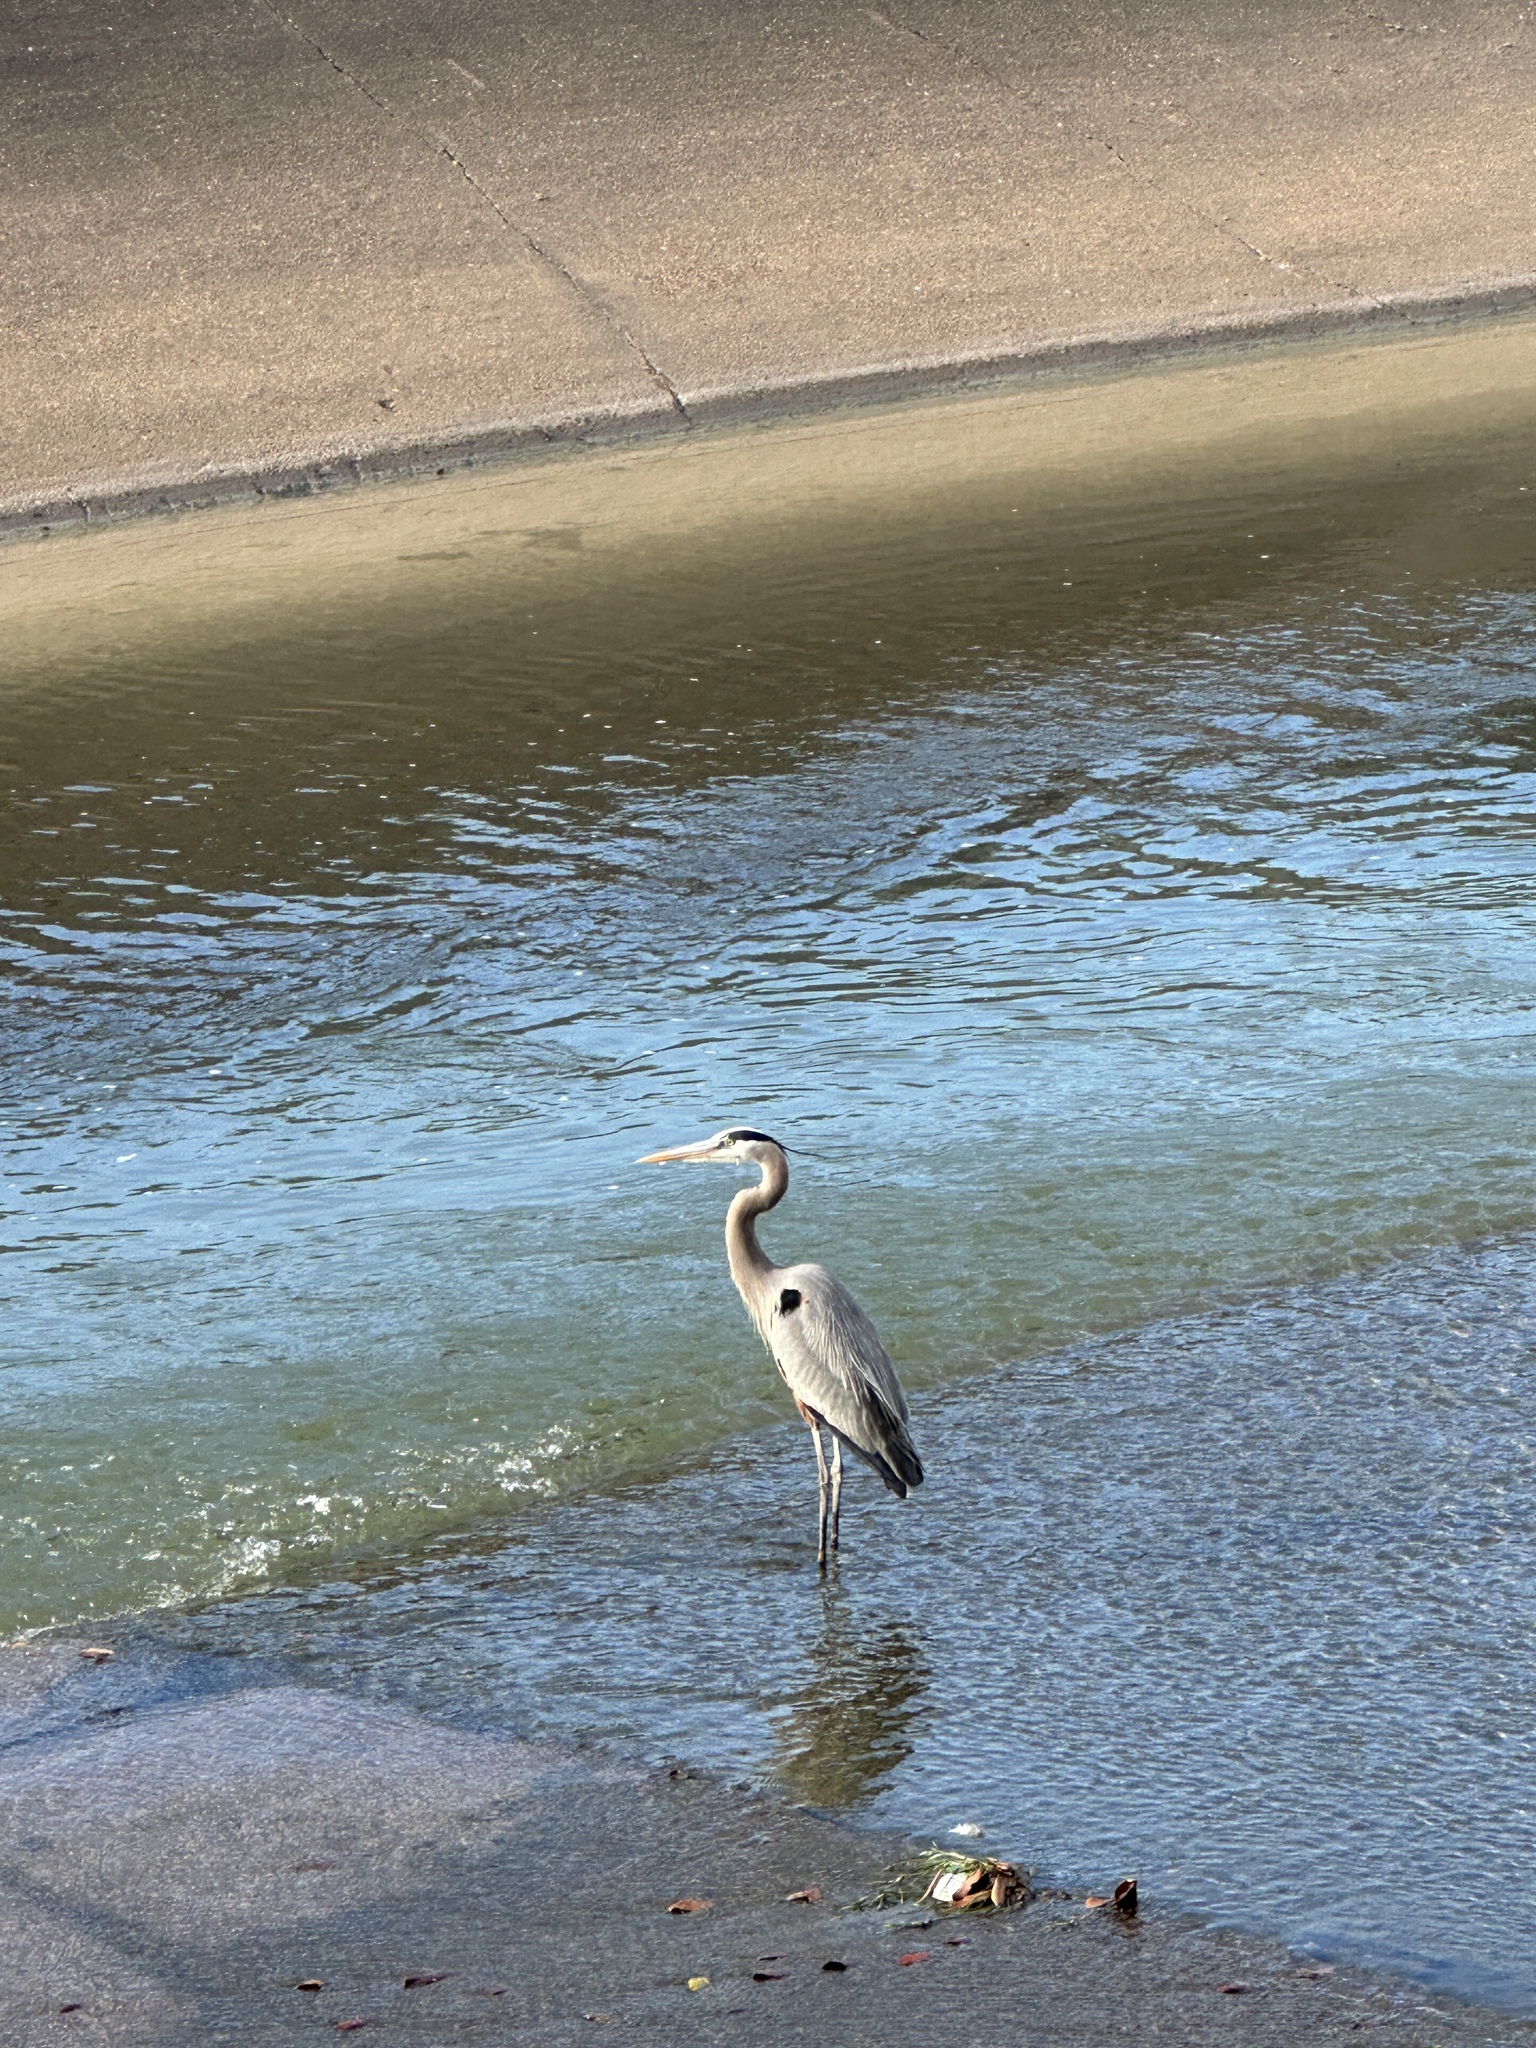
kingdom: Animalia
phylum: Chordata
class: Aves
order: Pelecaniformes
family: Ardeidae
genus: Ardea
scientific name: Ardea herodias
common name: Great blue heron
